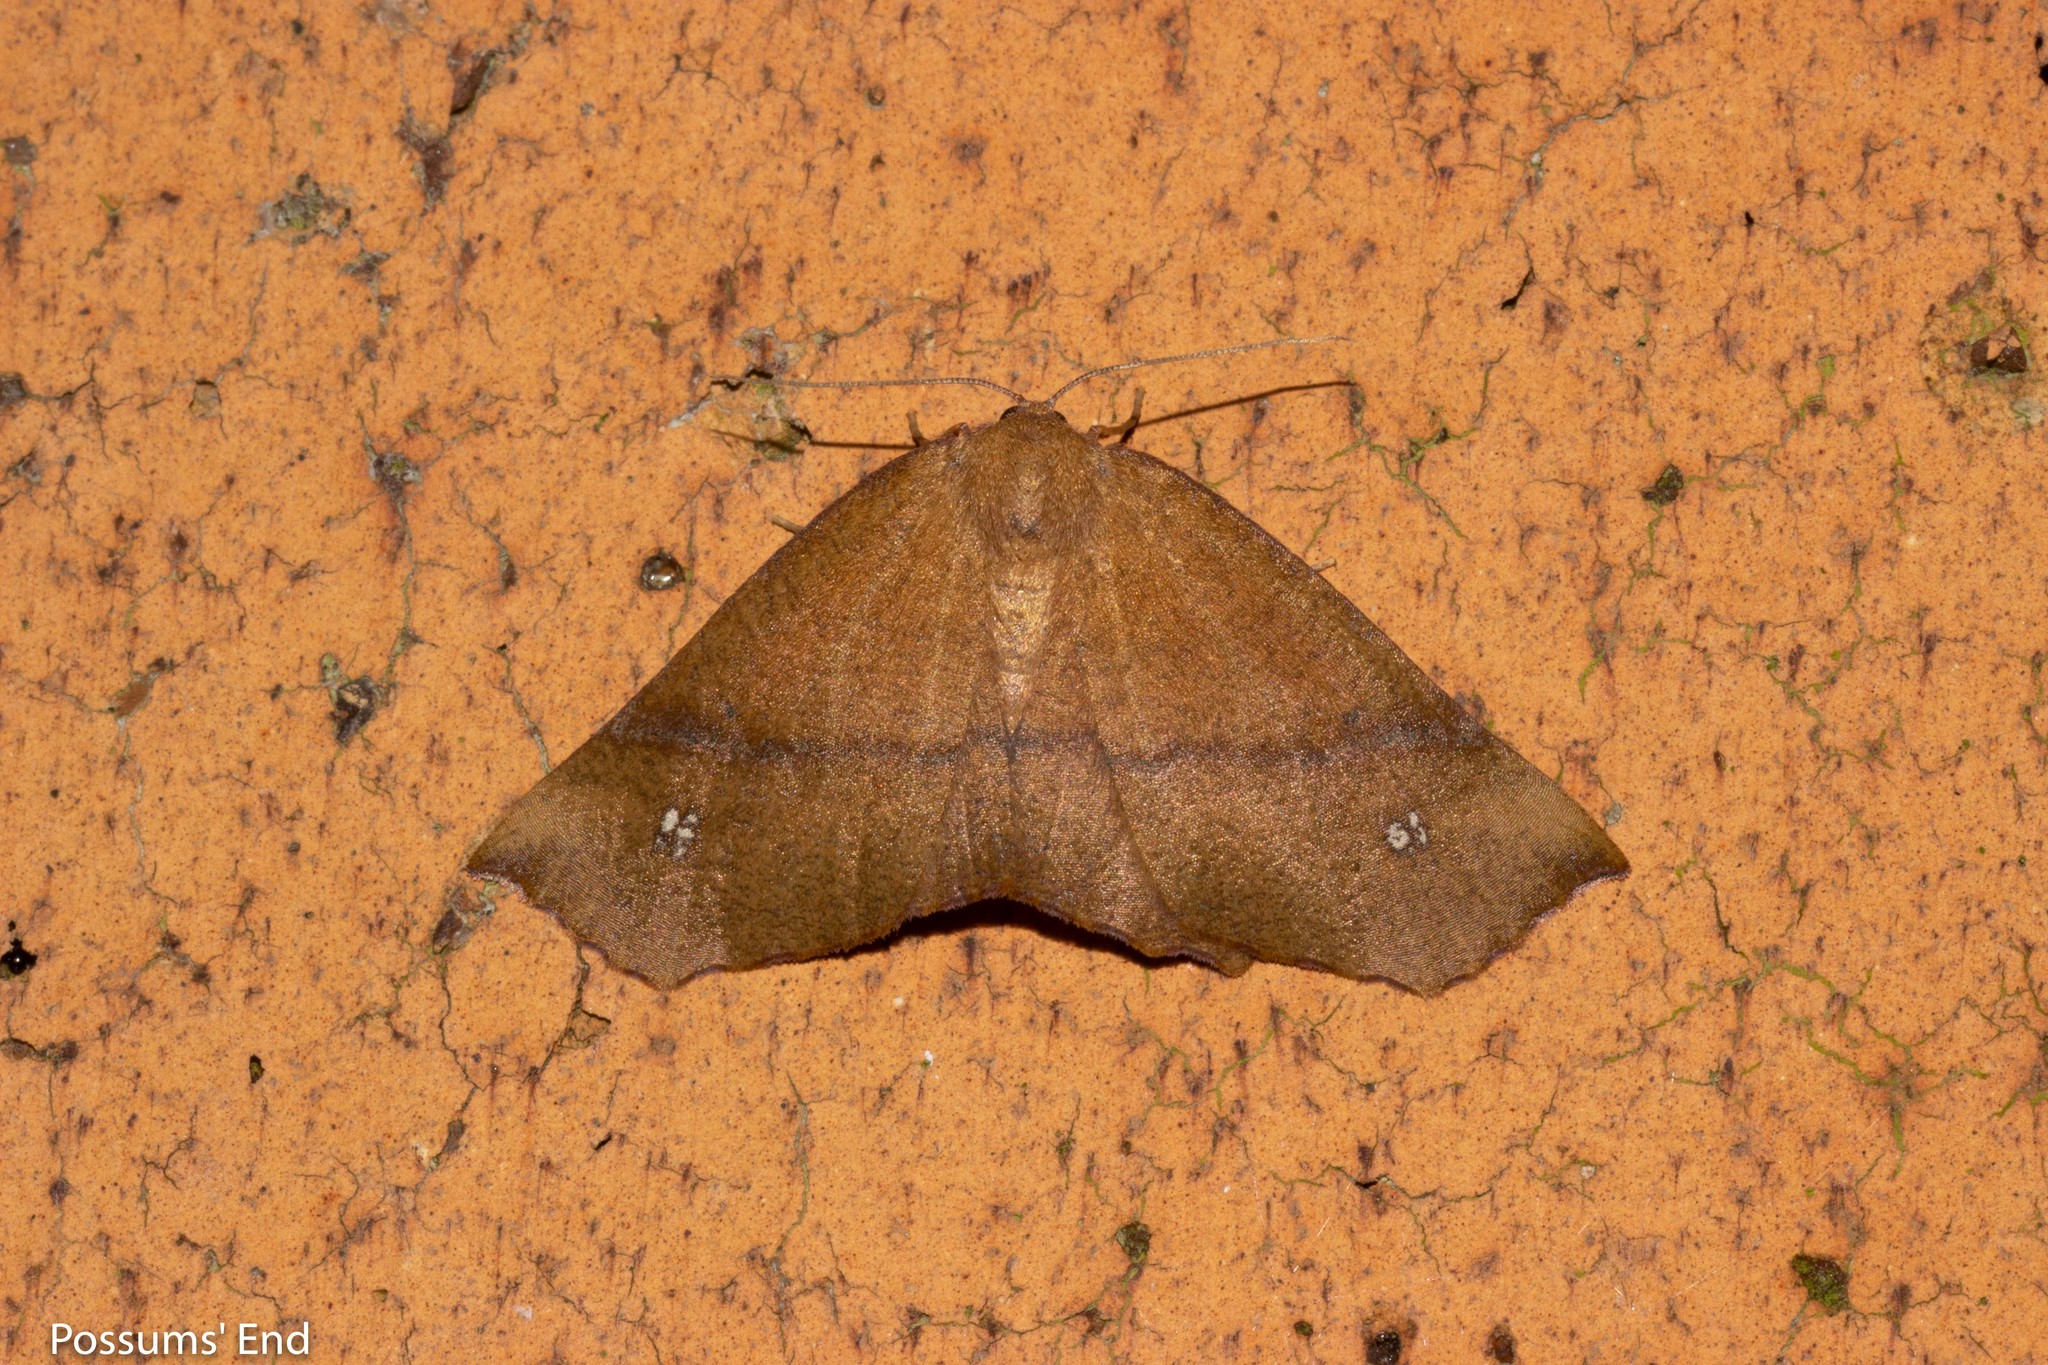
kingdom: Animalia
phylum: Arthropoda
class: Insecta
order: Lepidoptera
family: Geometridae
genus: Xyridacma
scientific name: Xyridacma ustaria
